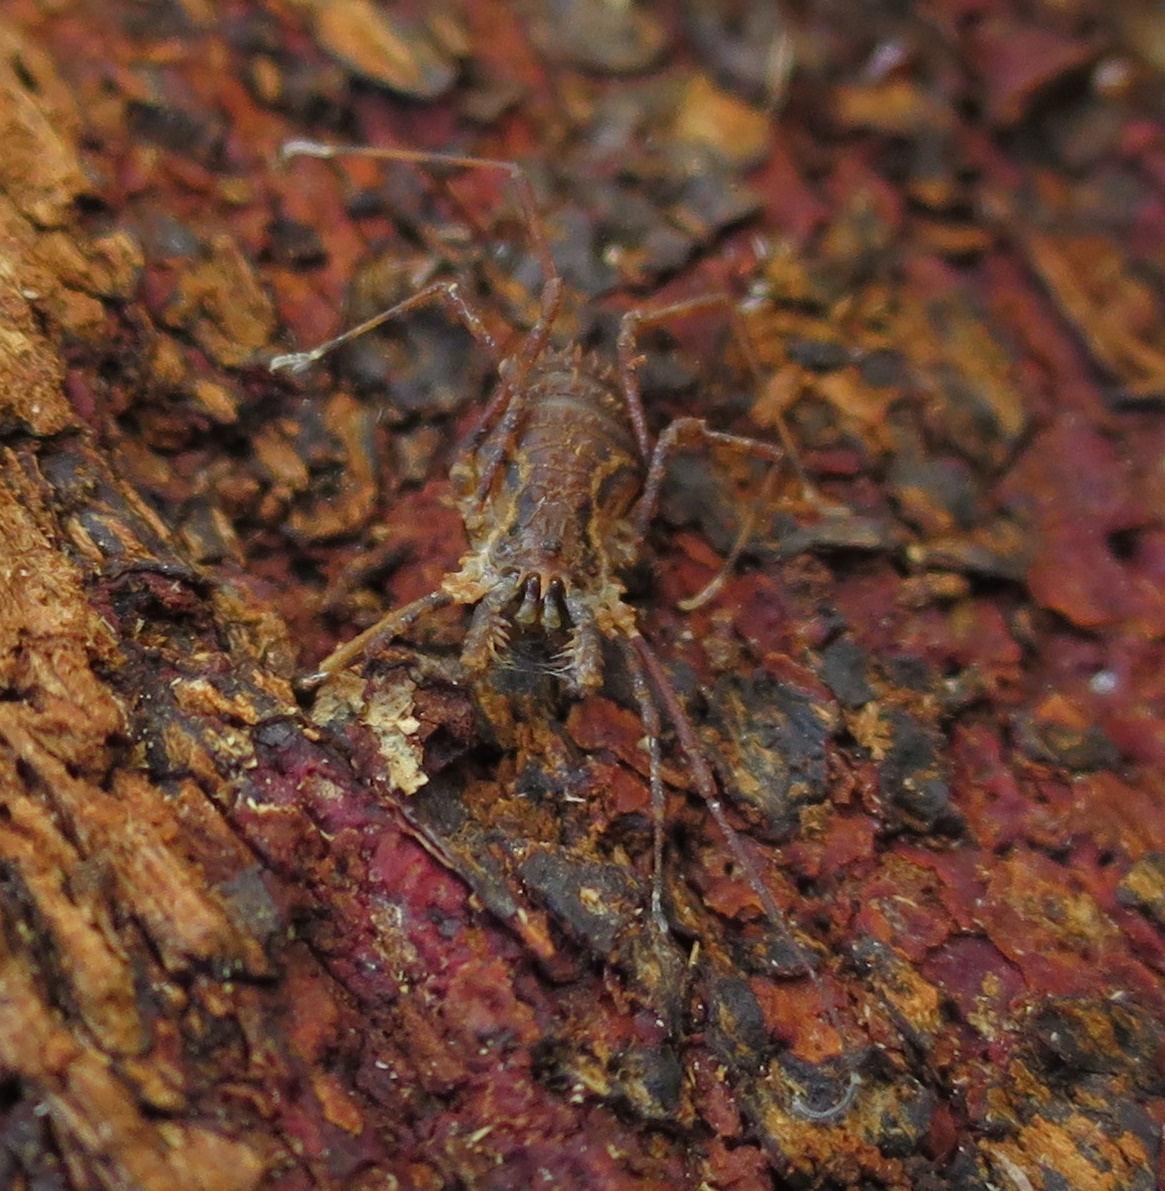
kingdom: Animalia
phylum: Arthropoda
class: Arachnida
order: Opiliones
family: Triaenonychidae
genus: Algidia
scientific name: Algidia chiltoni
